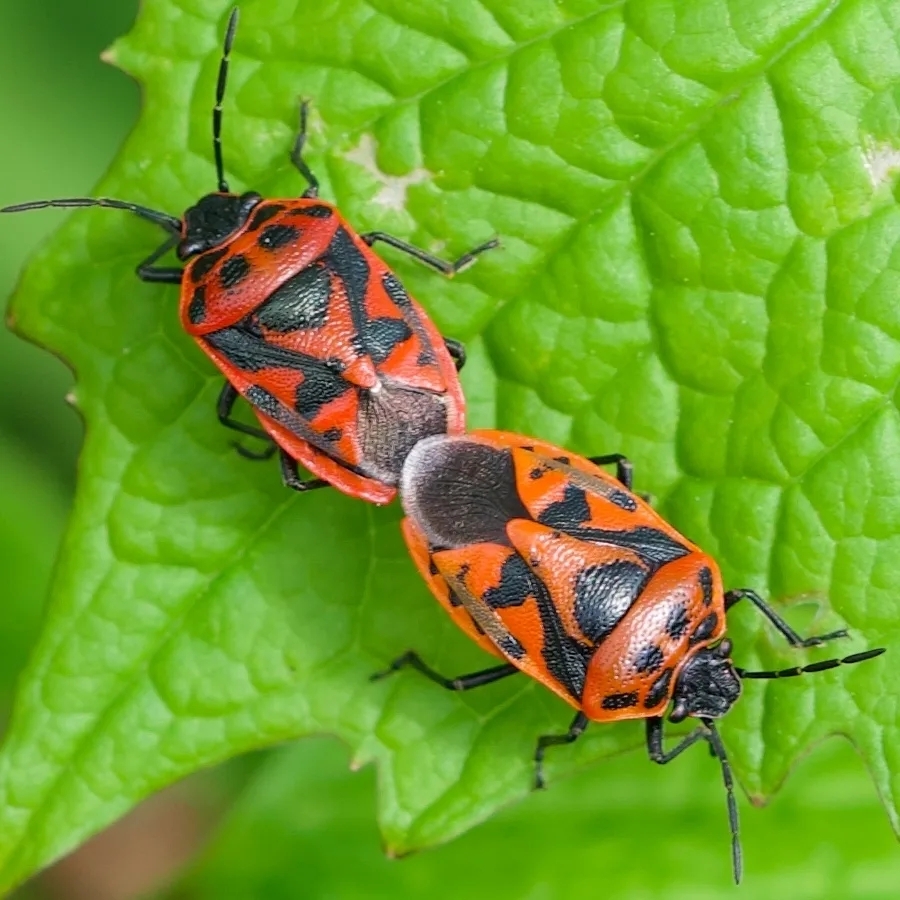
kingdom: Animalia
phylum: Arthropoda
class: Insecta
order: Hemiptera
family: Pentatomidae
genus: Eurydema
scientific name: Eurydema ornata
